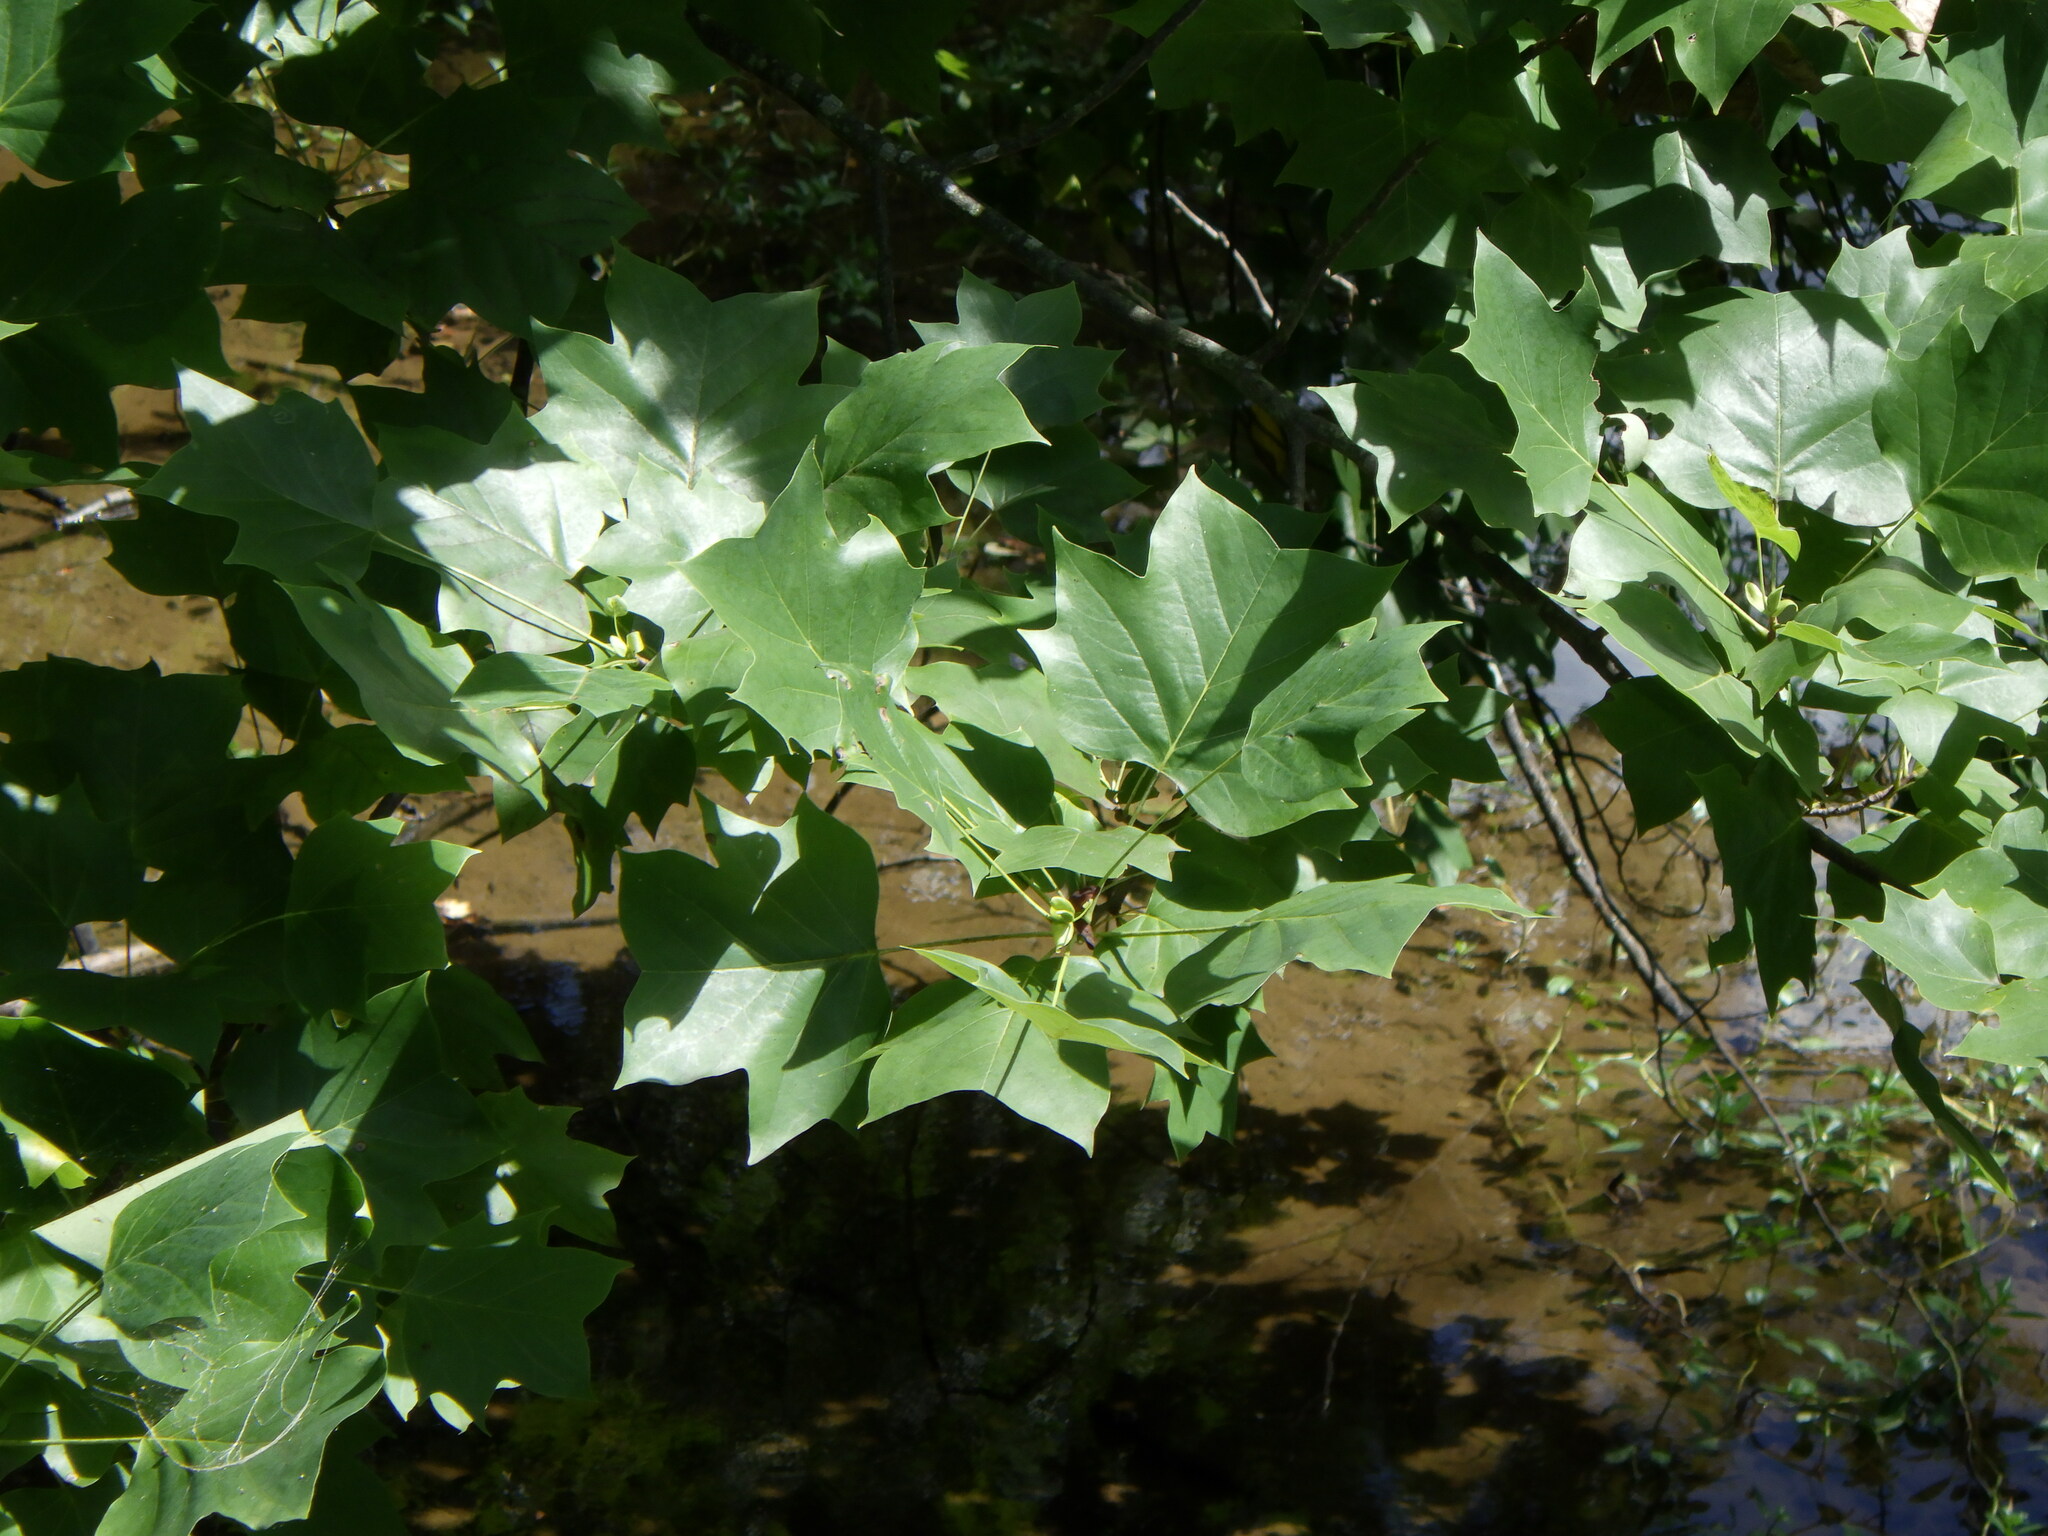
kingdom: Plantae
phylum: Tracheophyta
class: Magnoliopsida
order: Magnoliales
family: Magnoliaceae
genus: Liriodendron
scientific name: Liriodendron tulipifera
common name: Tulip tree
